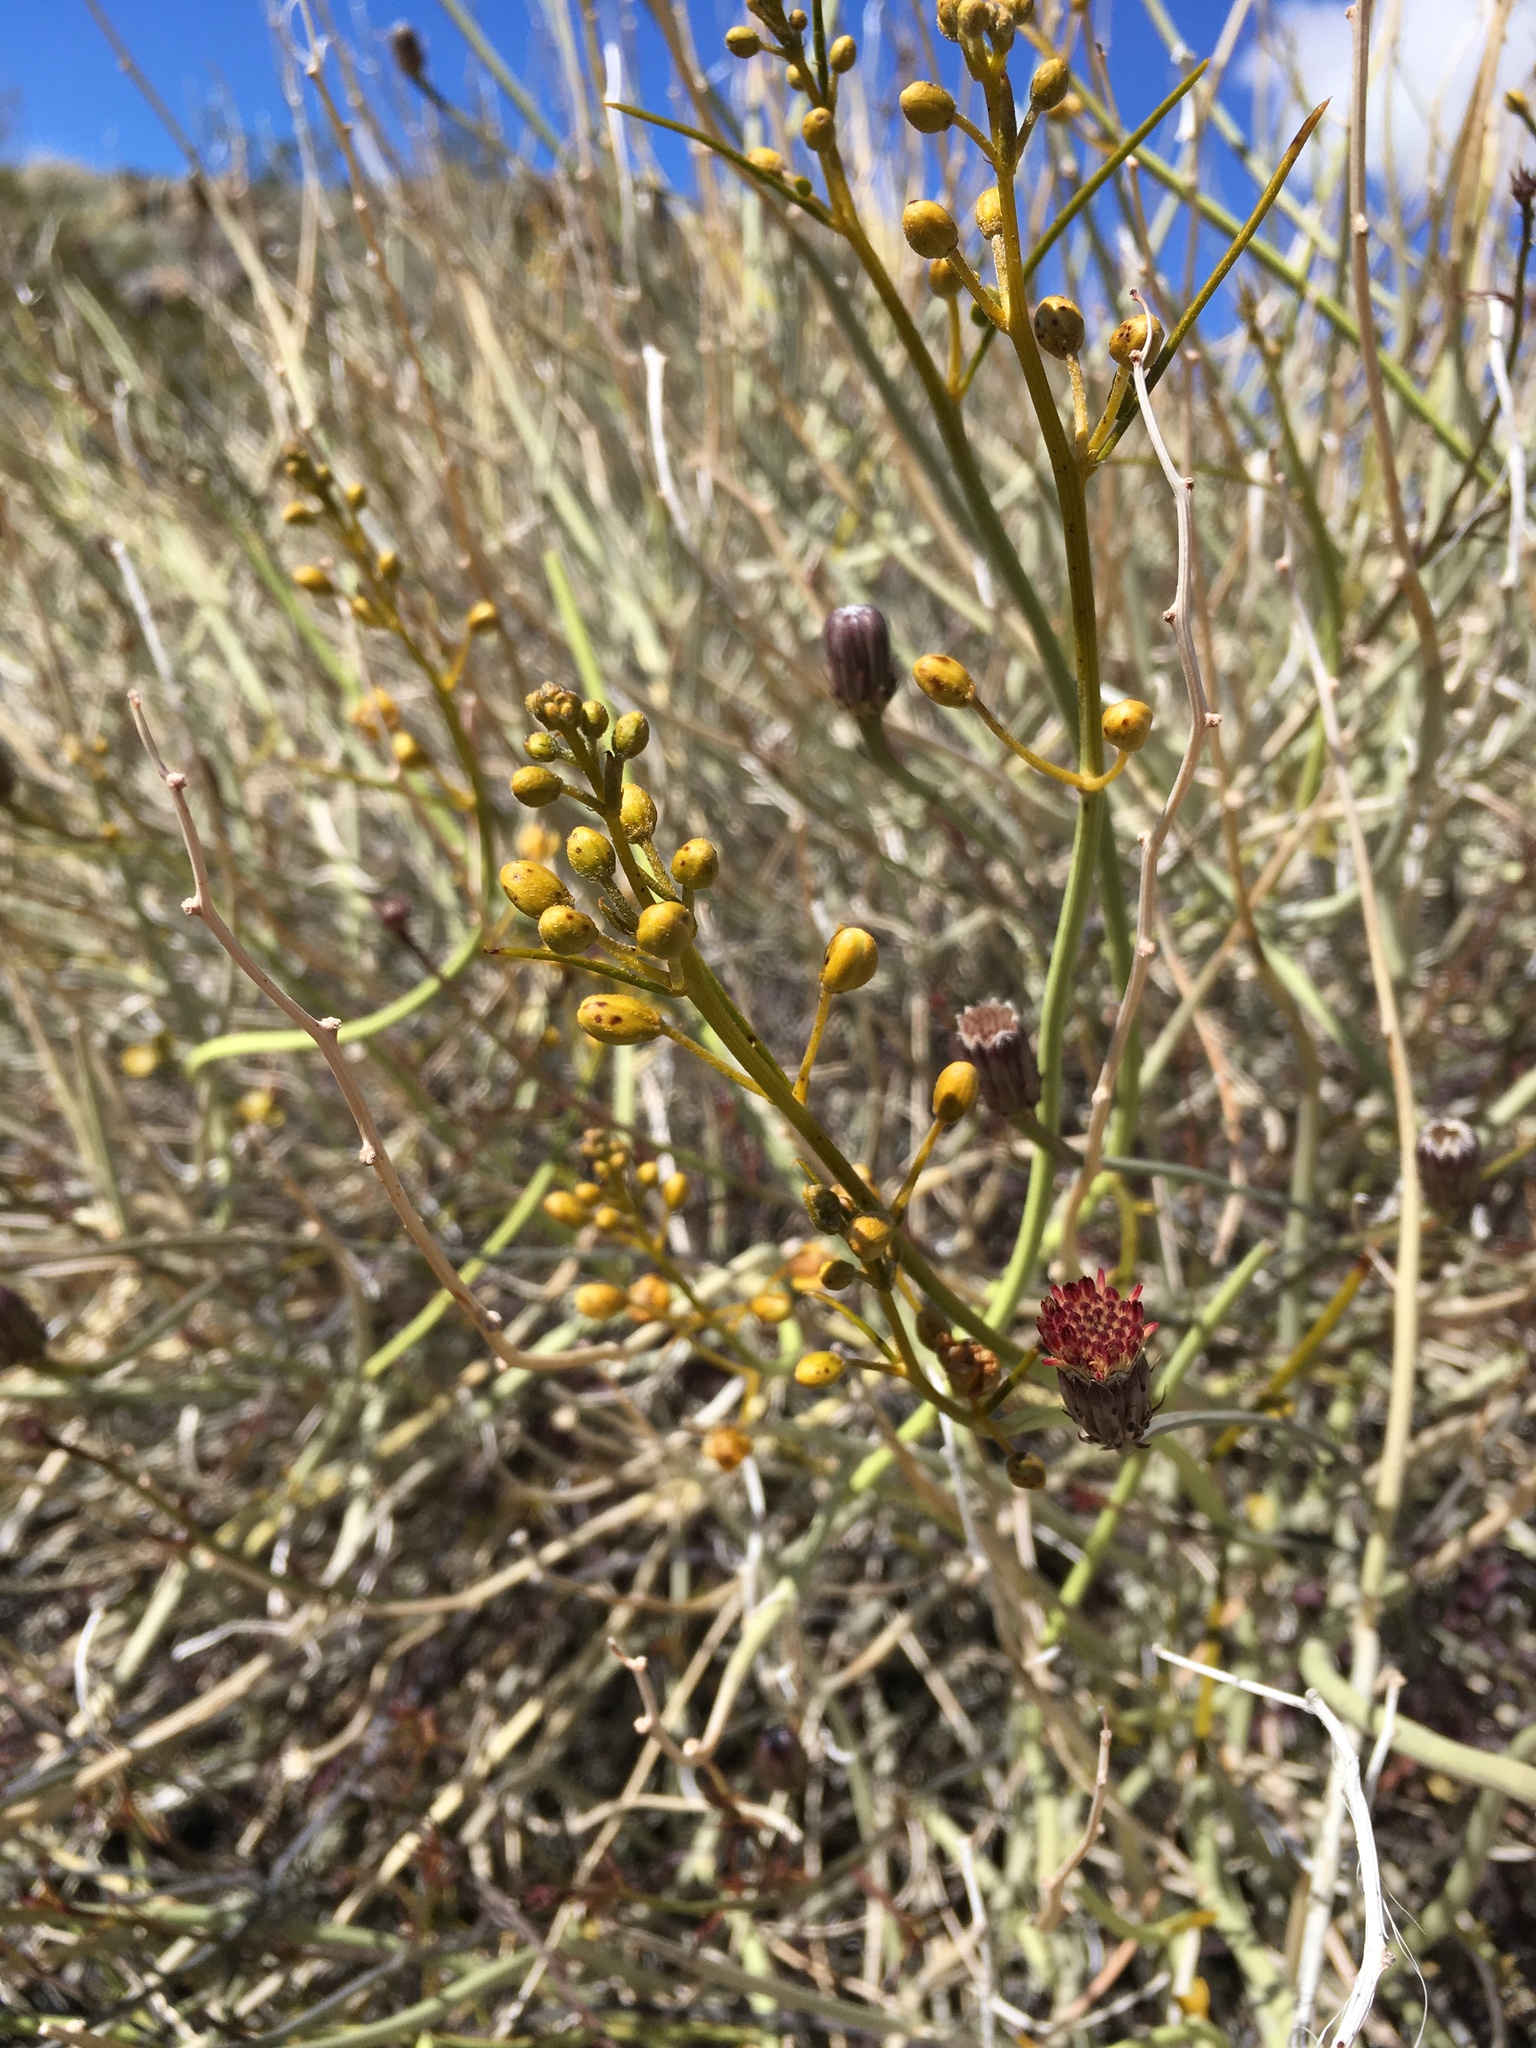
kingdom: Plantae
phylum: Tracheophyta
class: Magnoliopsida
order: Fabales
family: Fabaceae
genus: Senna
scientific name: Senna armata
